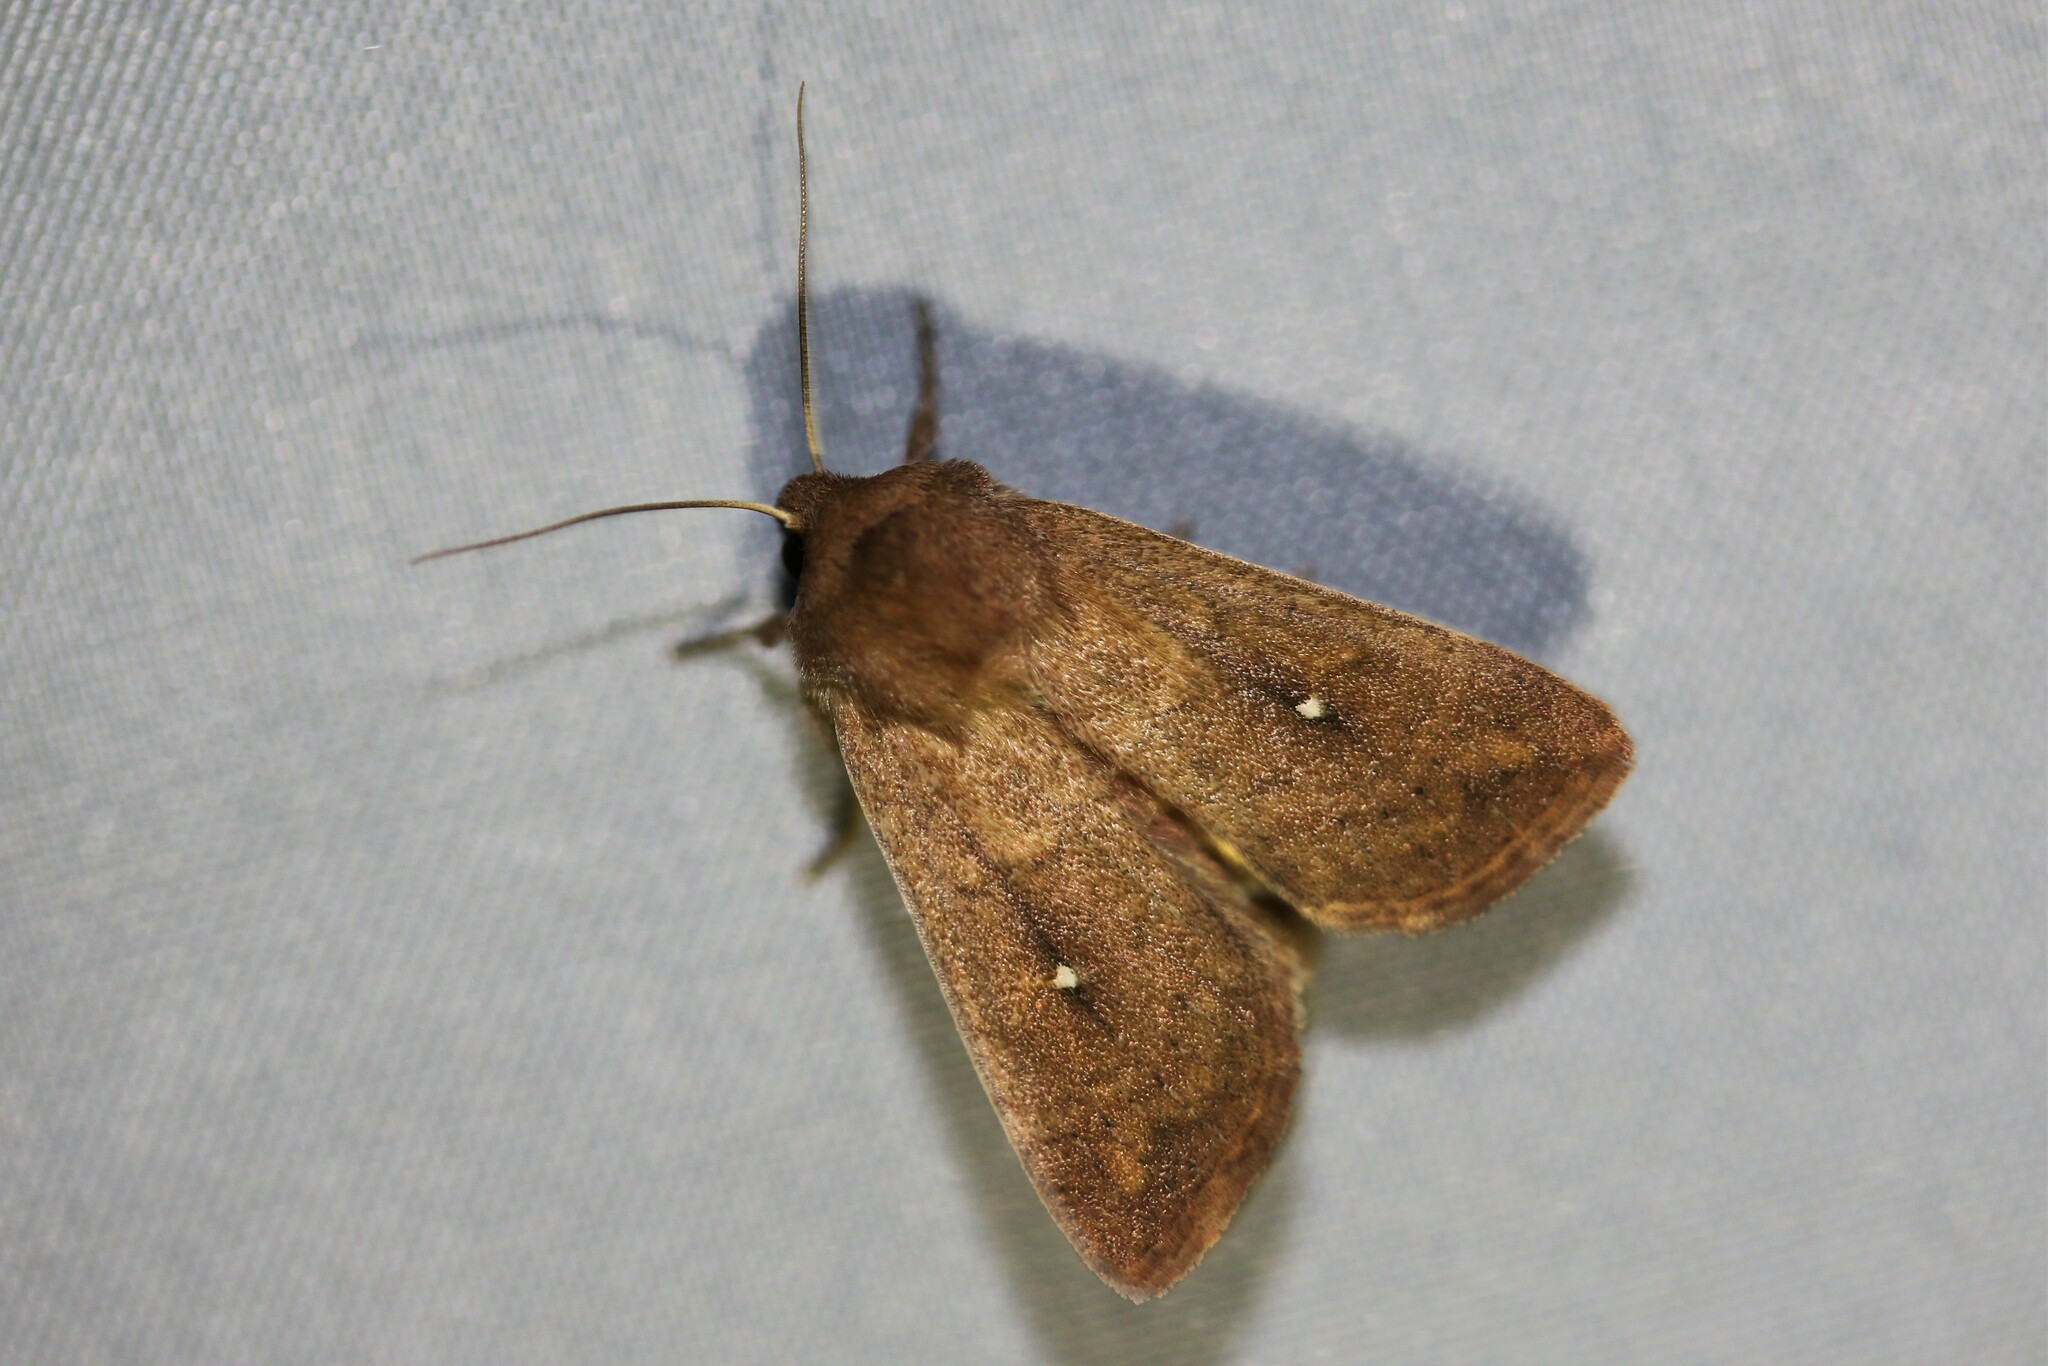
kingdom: Animalia
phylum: Arthropoda
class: Insecta
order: Lepidoptera
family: Noctuidae
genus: Mythimna
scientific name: Mythimna albipuncta
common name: White-point
